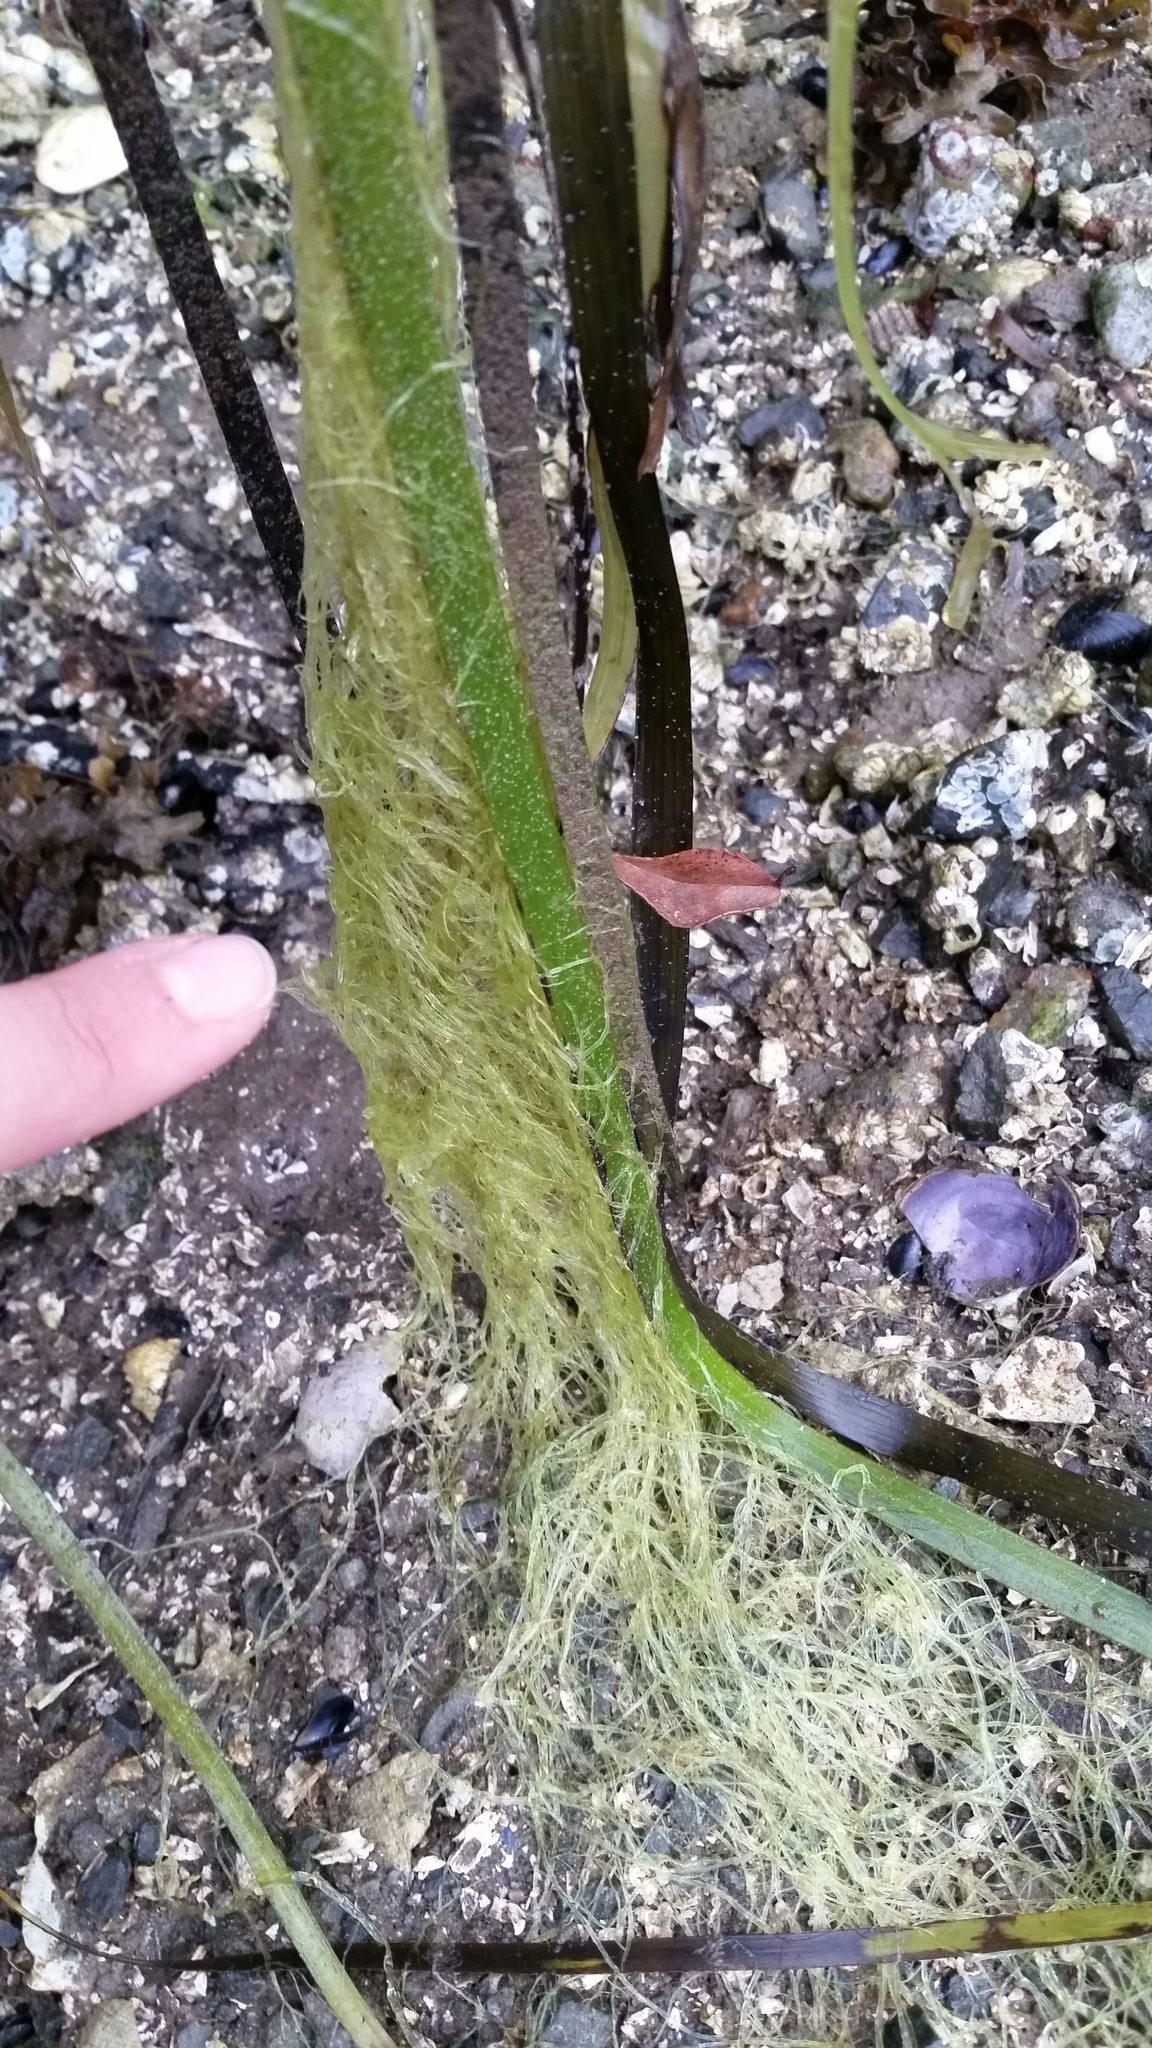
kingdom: Plantae
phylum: Chlorophyta
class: Ulvophyceae
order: Ulvales
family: Ulvaceae
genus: Ulva
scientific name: Ulva intestinalis
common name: Gut weed
